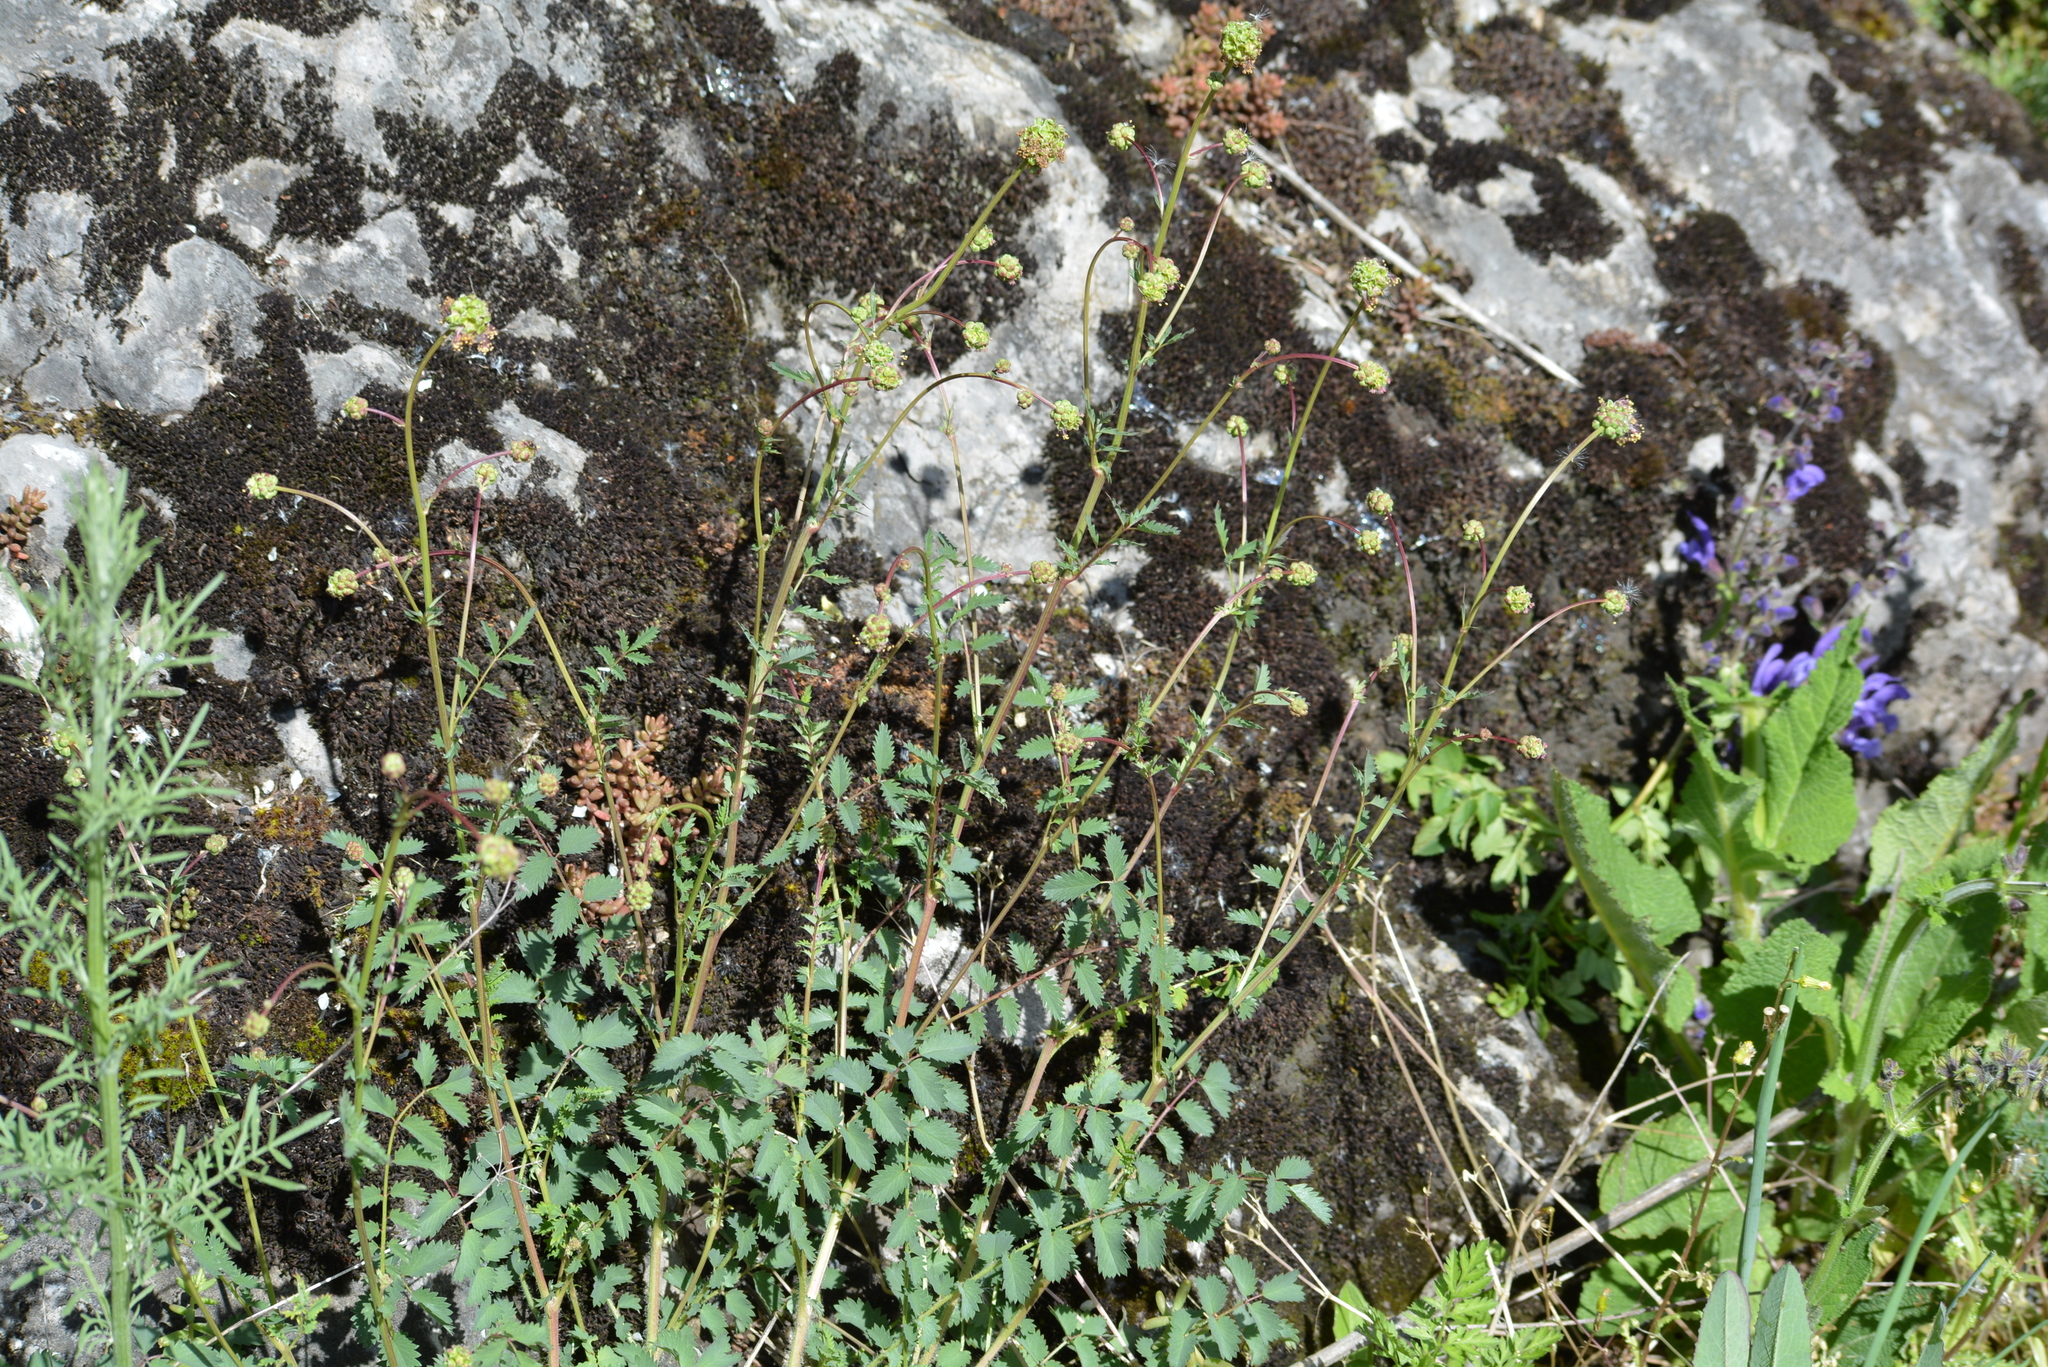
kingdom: Plantae
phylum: Tracheophyta
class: Magnoliopsida
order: Rosales
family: Rosaceae
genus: Poterium
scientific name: Poterium sanguisorba
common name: Salad burnet
